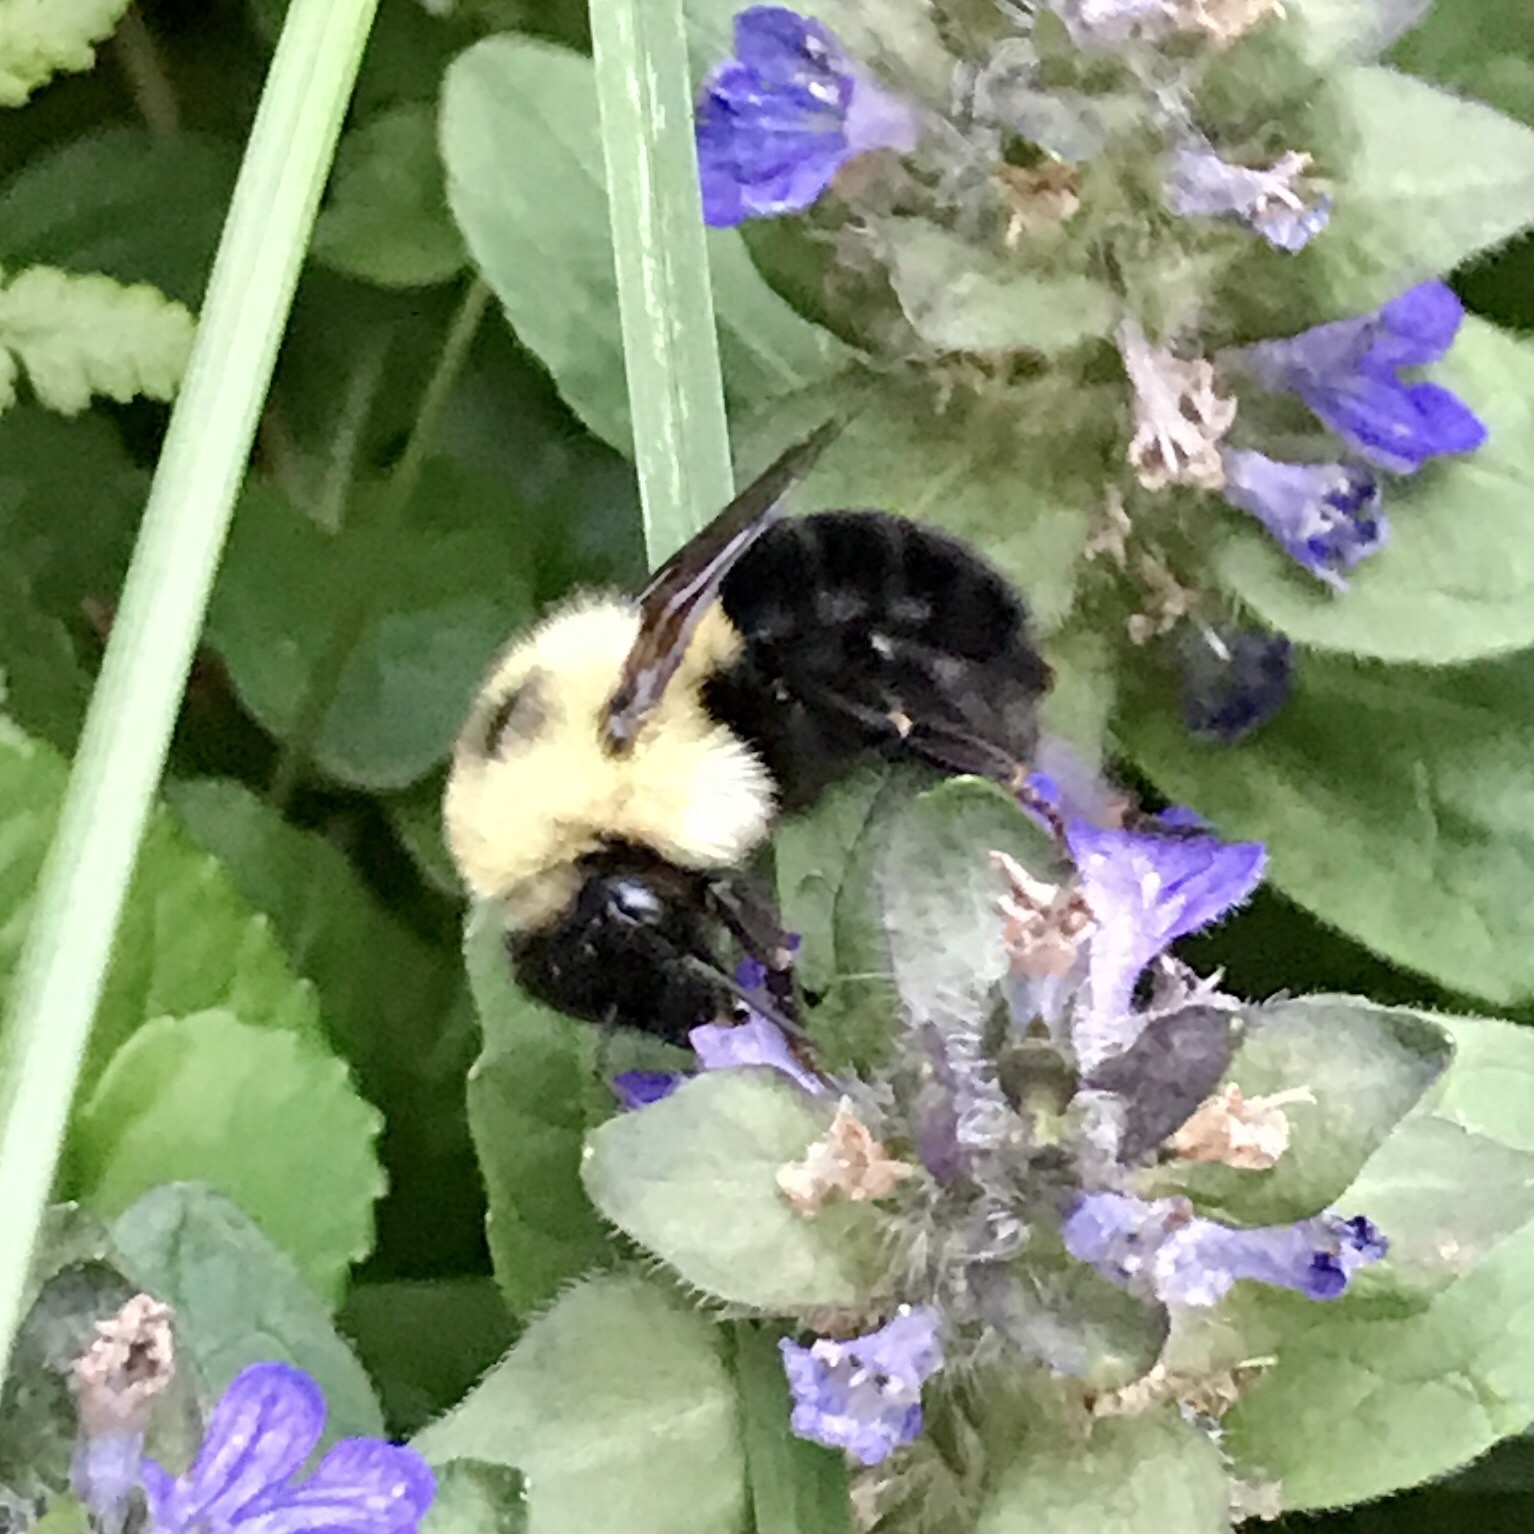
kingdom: Animalia
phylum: Arthropoda
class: Insecta
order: Hymenoptera
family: Apidae
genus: Bombus
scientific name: Bombus bimaculatus
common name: Two-spotted bumble bee
